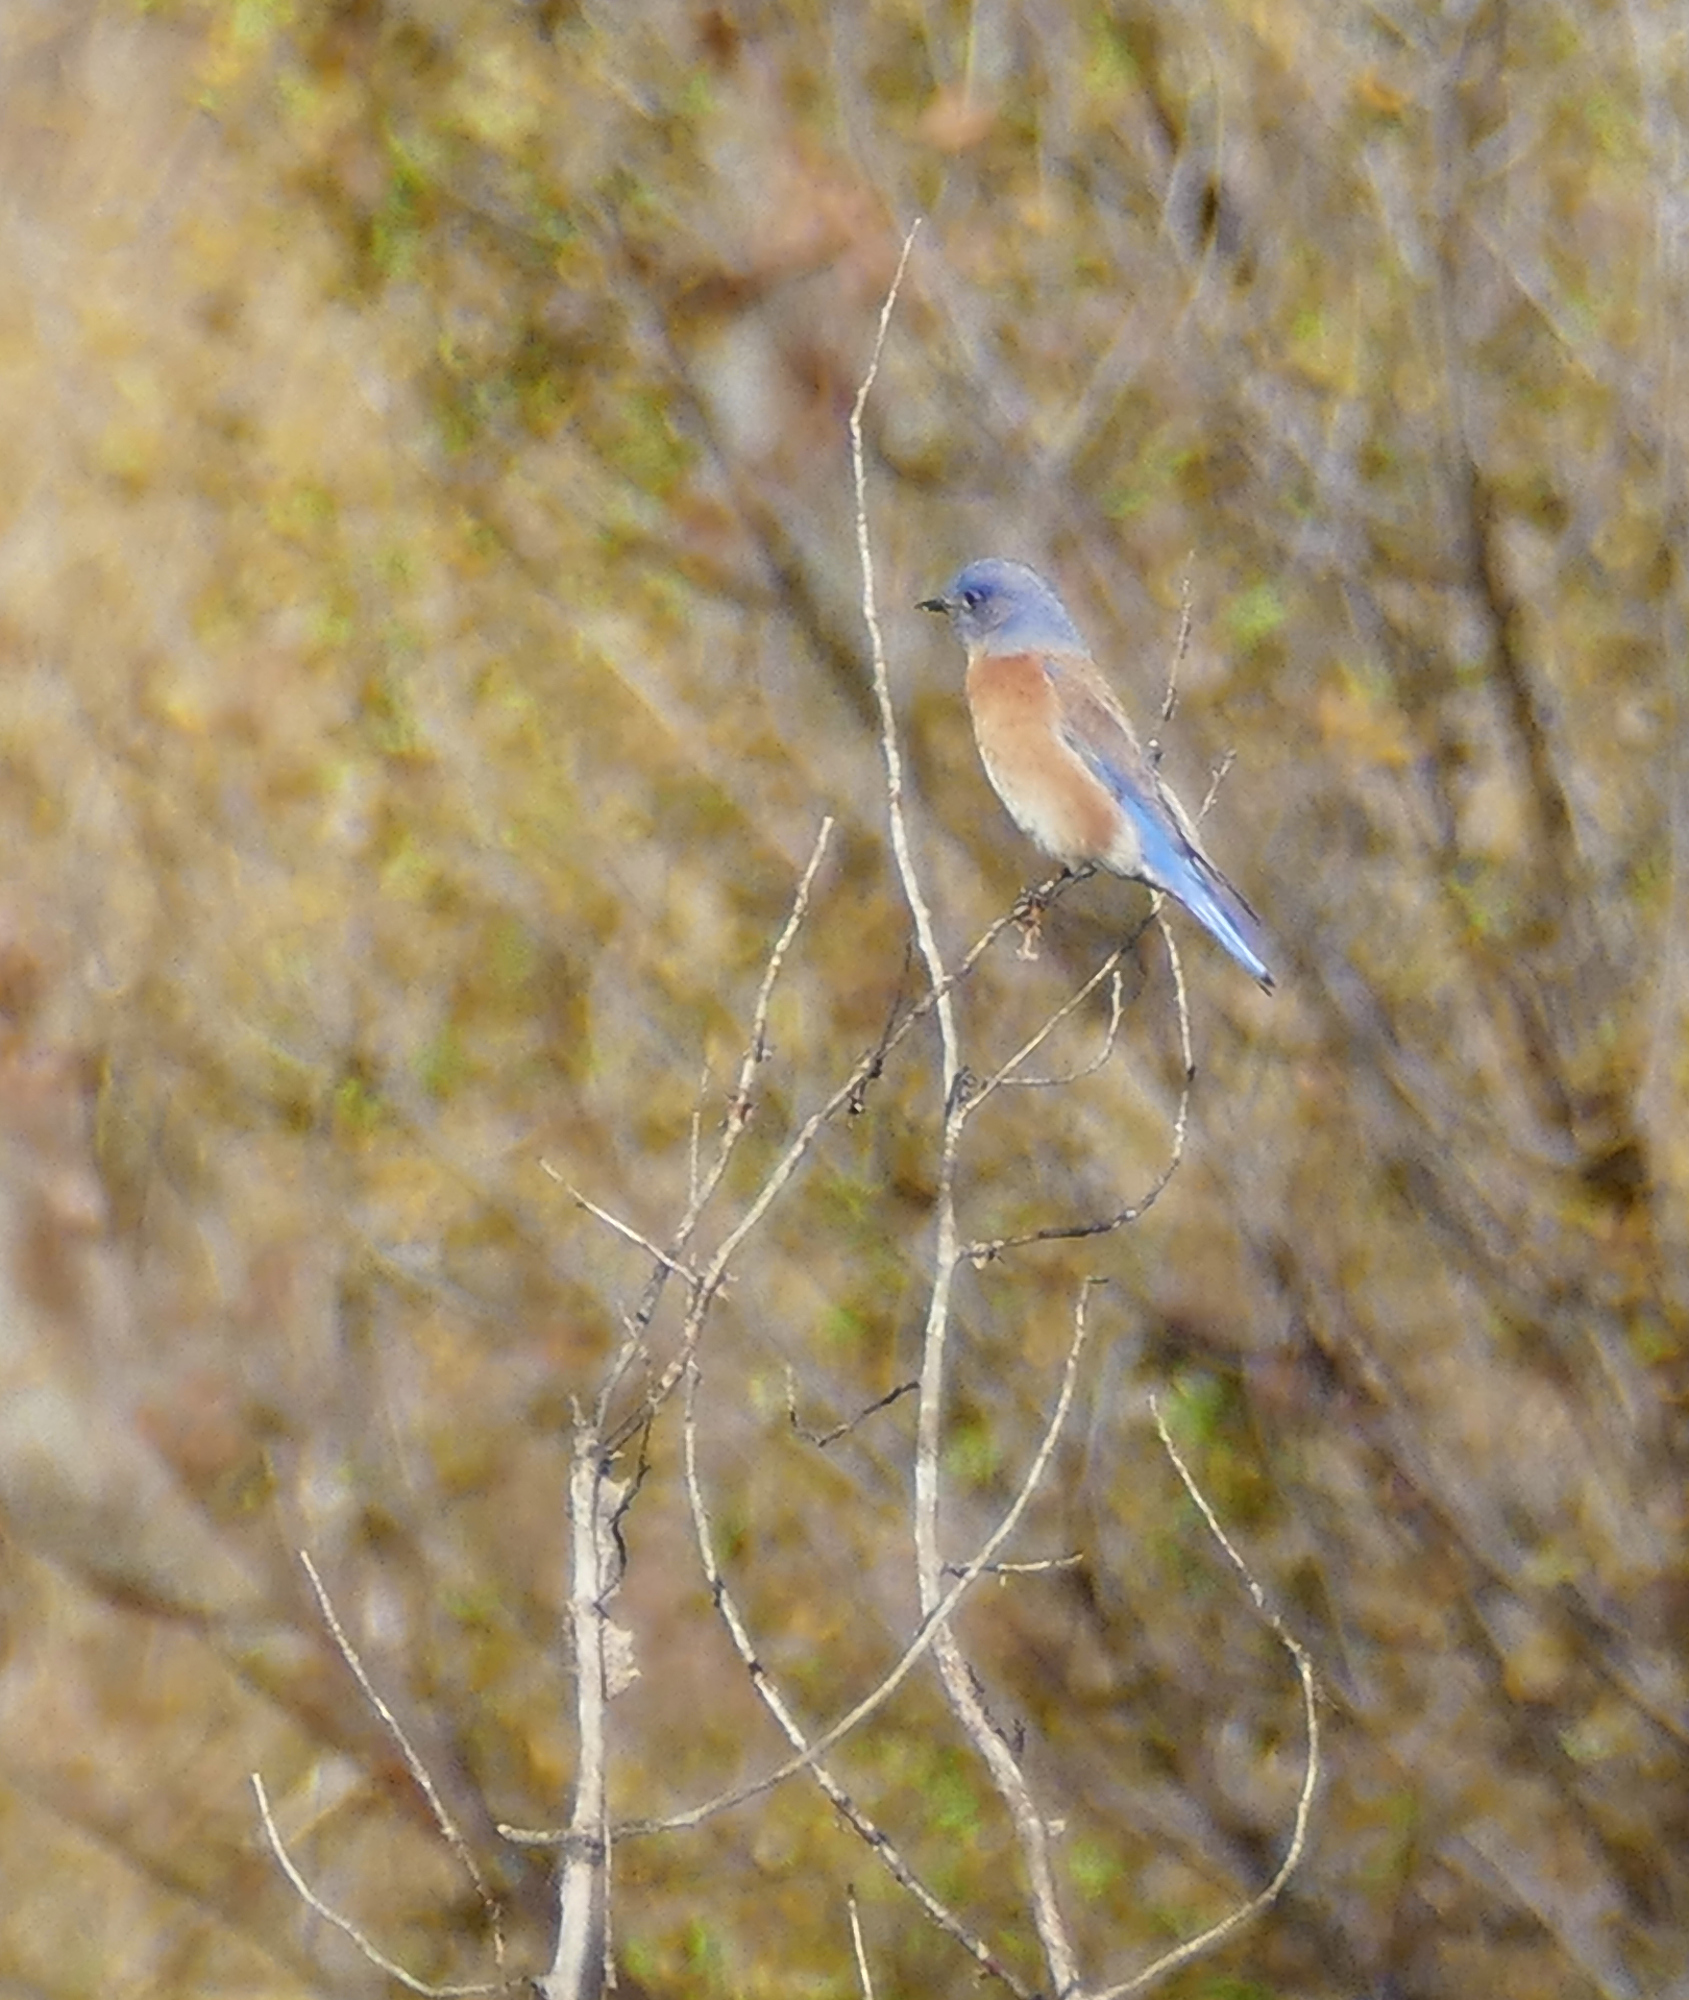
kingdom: Animalia
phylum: Chordata
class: Aves
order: Passeriformes
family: Turdidae
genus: Sialia
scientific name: Sialia mexicana
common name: Western bluebird
